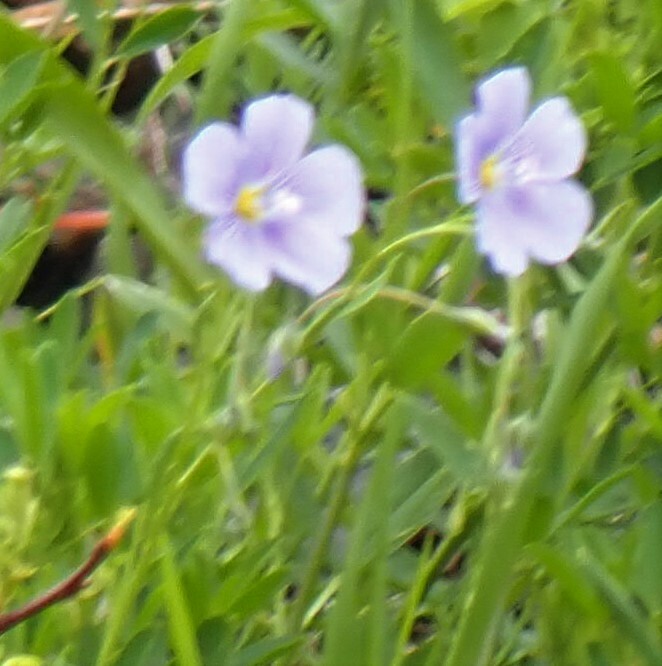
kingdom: Plantae
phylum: Tracheophyta
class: Magnoliopsida
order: Malpighiales
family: Linaceae
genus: Linum
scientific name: Linum lewisii
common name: Prairie flax
